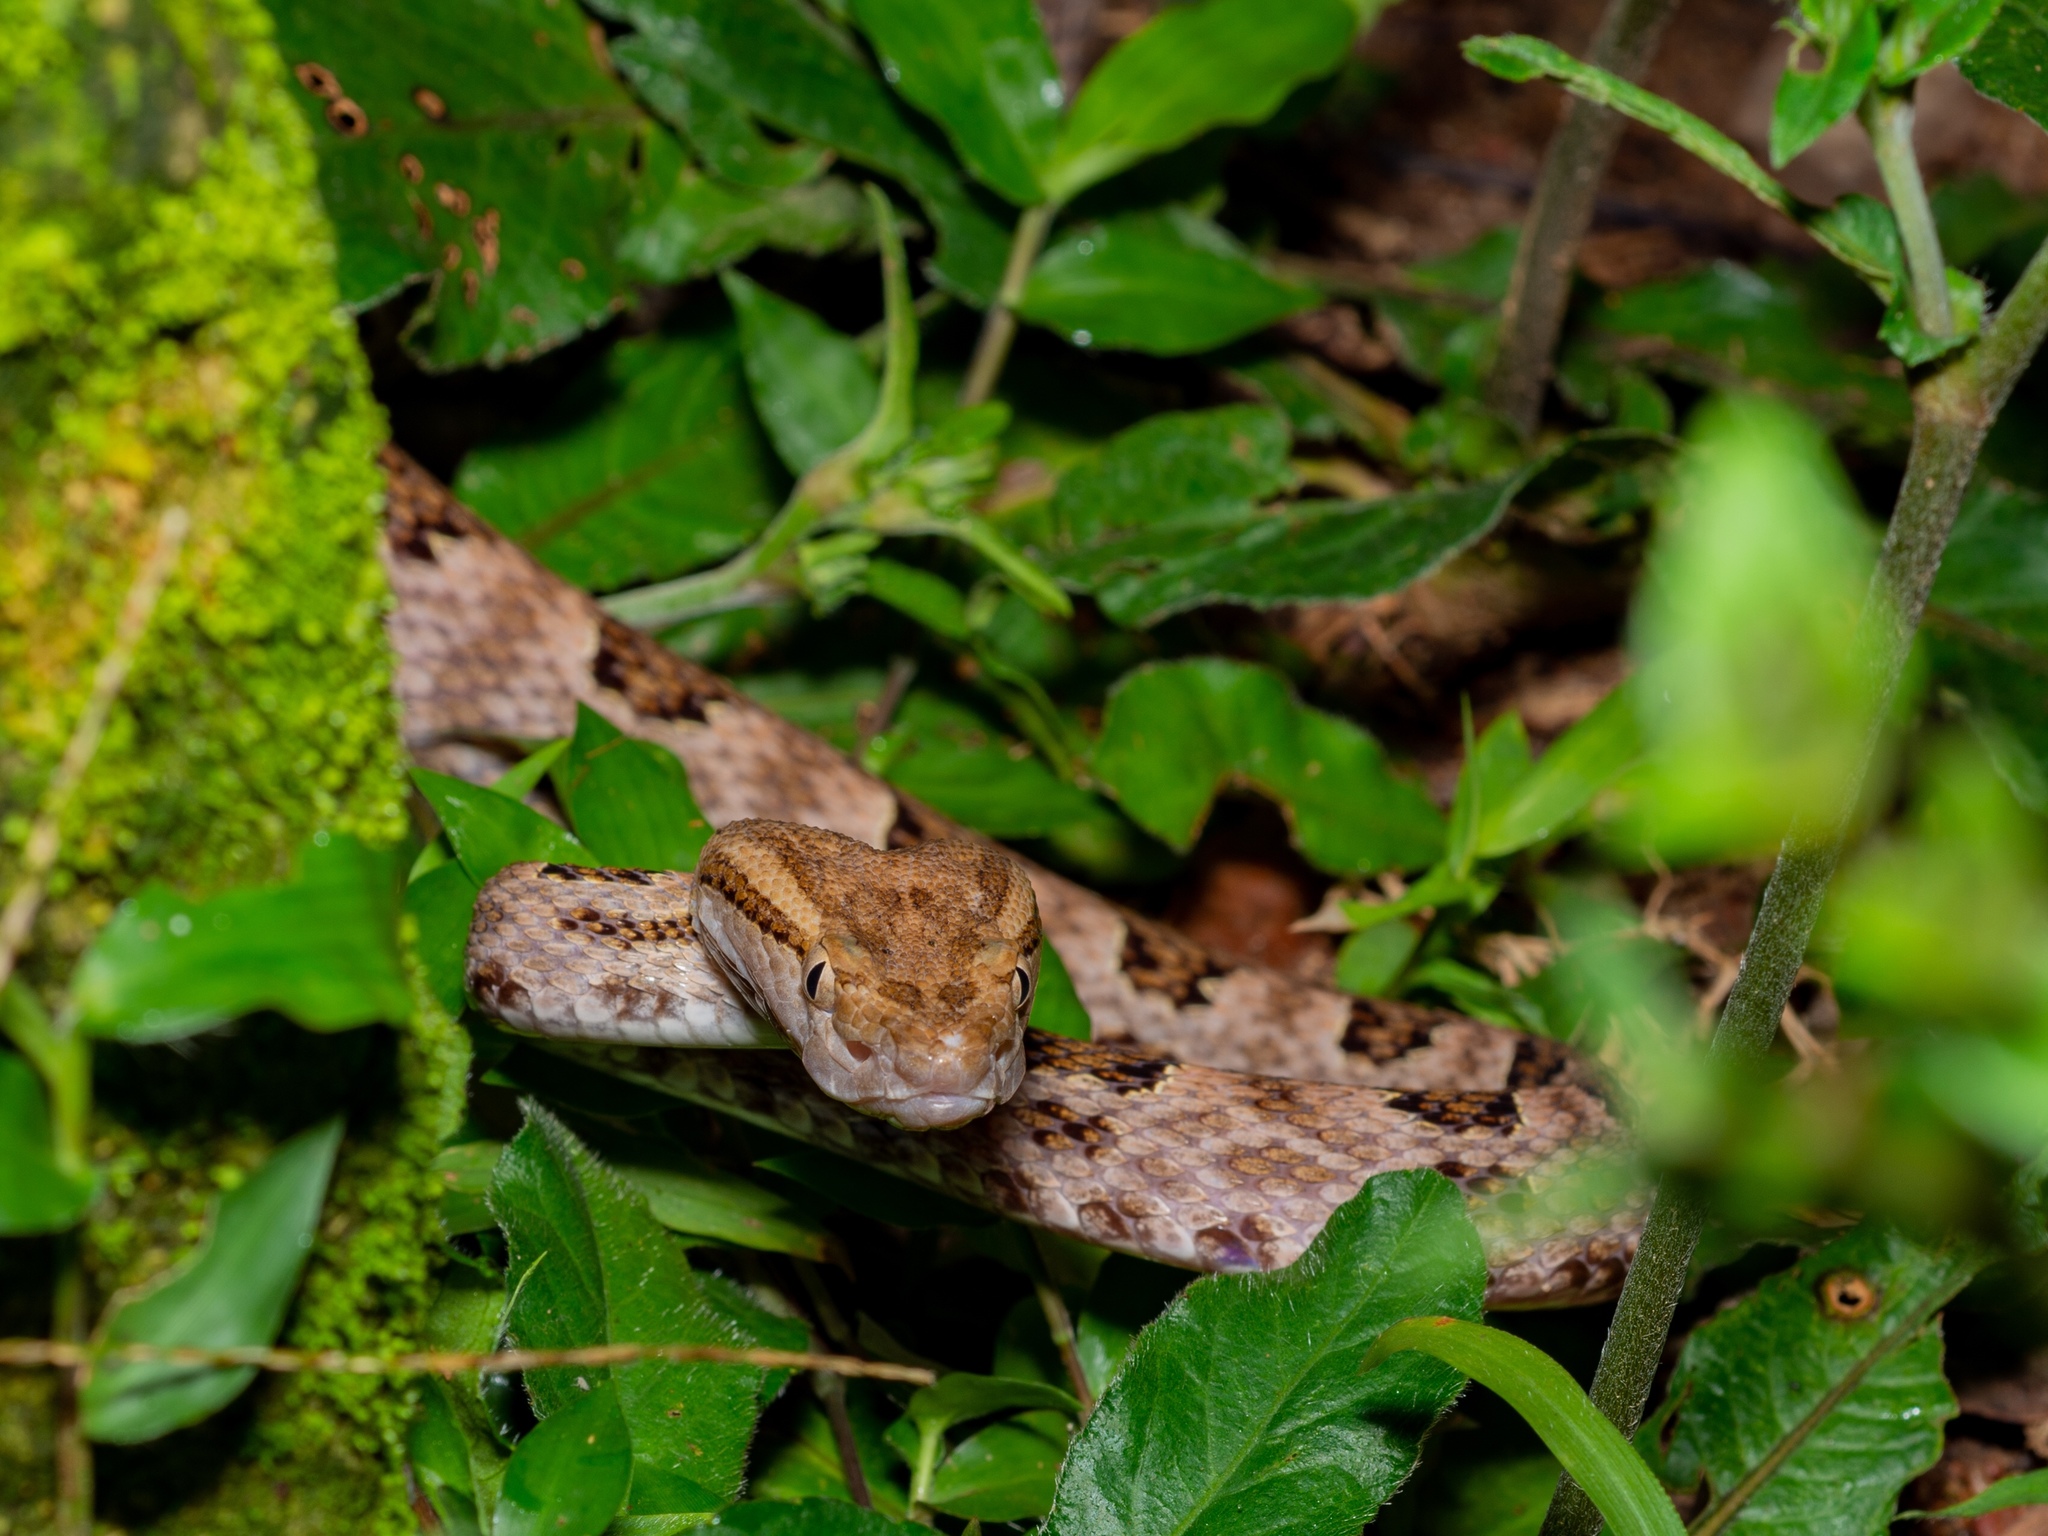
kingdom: Animalia
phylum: Chordata
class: Squamata
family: Viperidae
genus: Protobothrops
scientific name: Protobothrops mucrosquamatus
